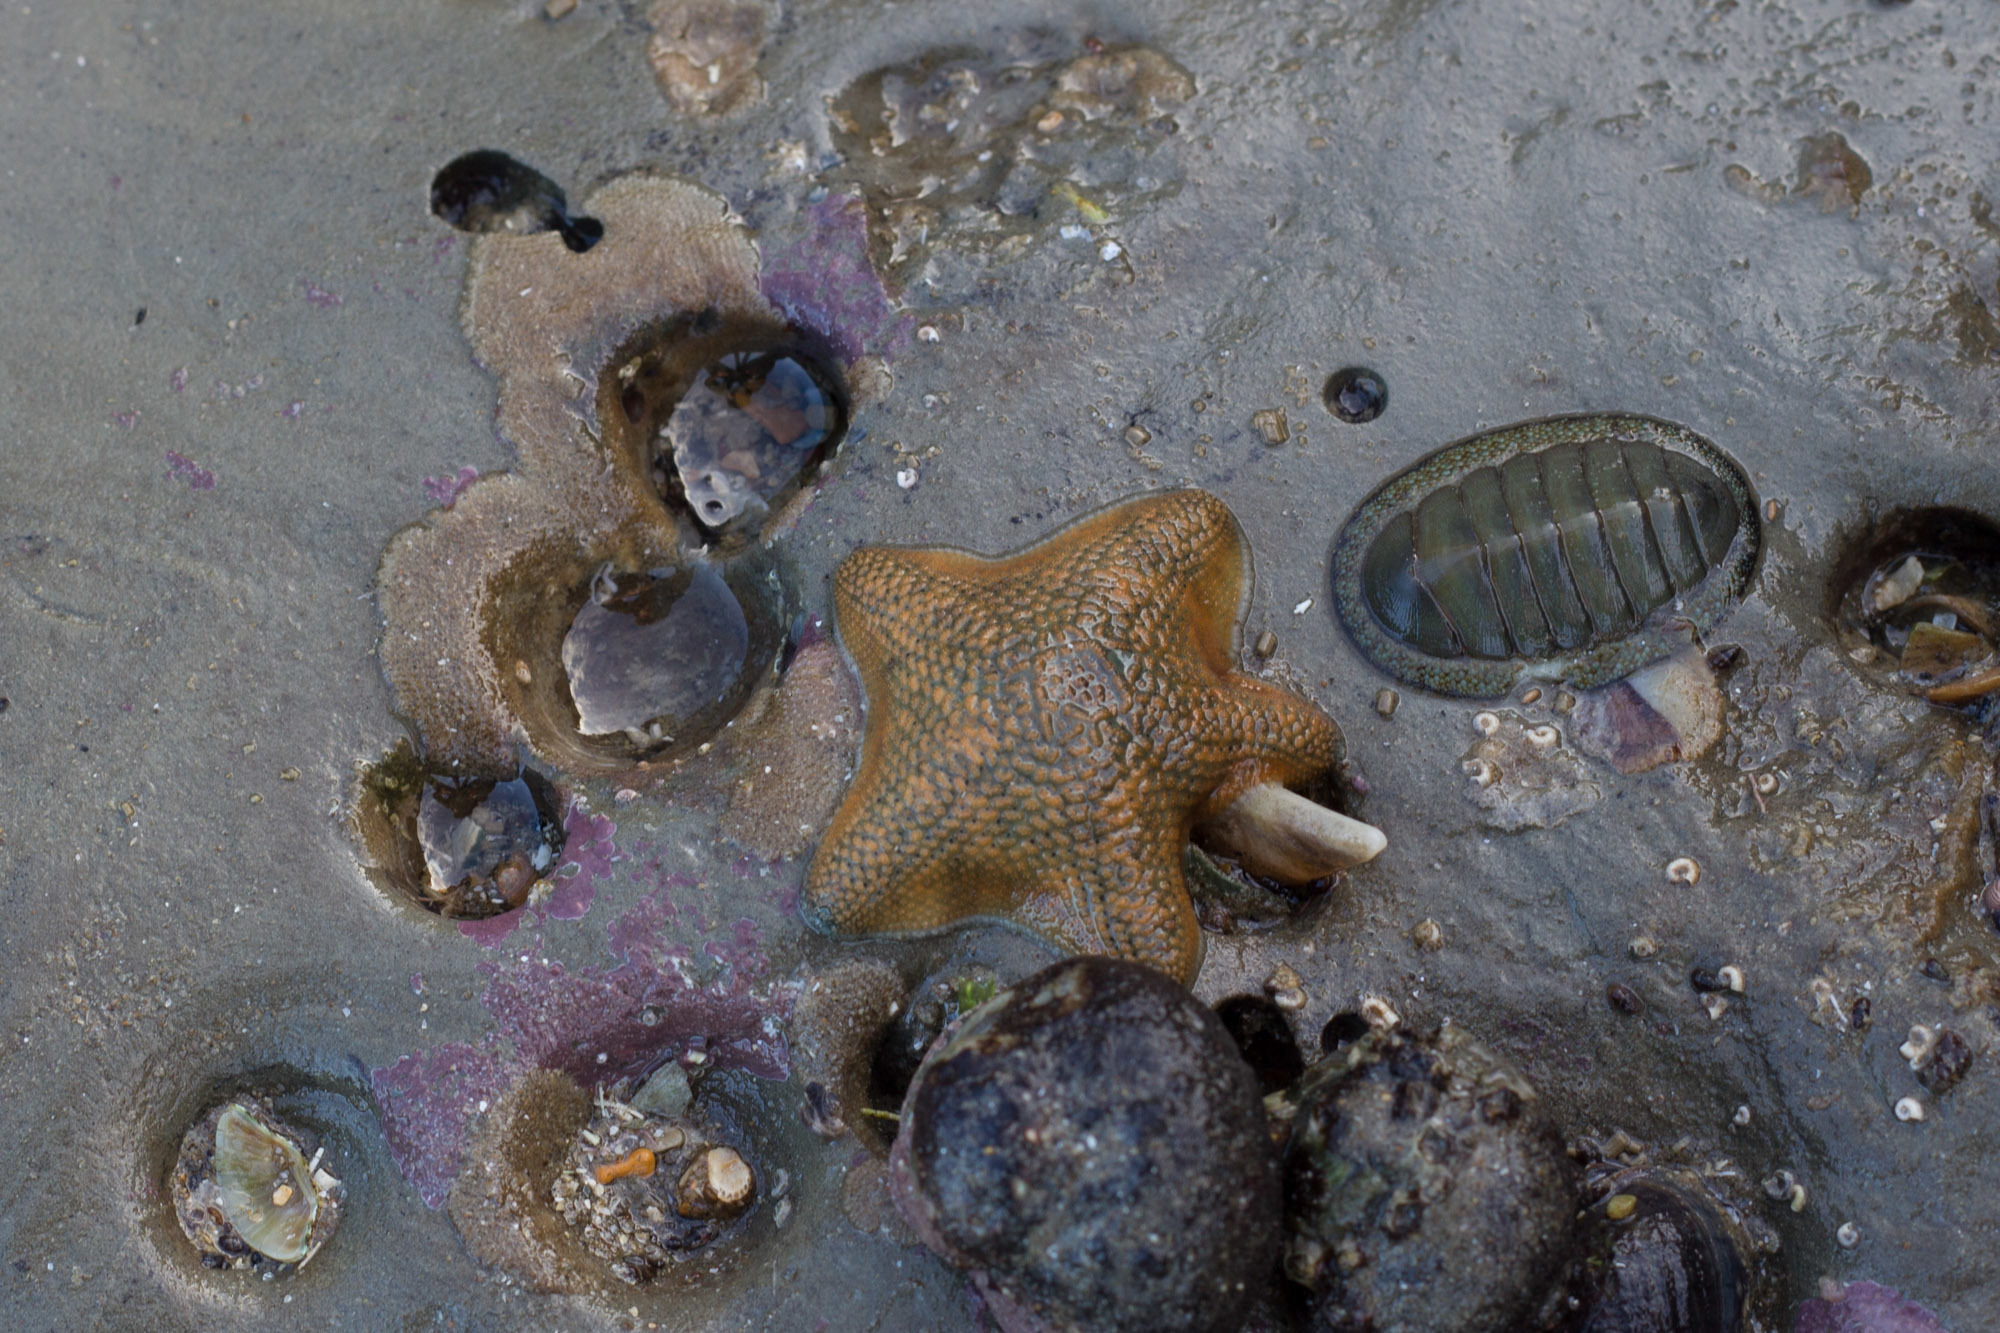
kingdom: Animalia
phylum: Echinodermata
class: Asteroidea
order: Valvatida
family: Asterinidae
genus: Patiriella
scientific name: Patiriella regularis
